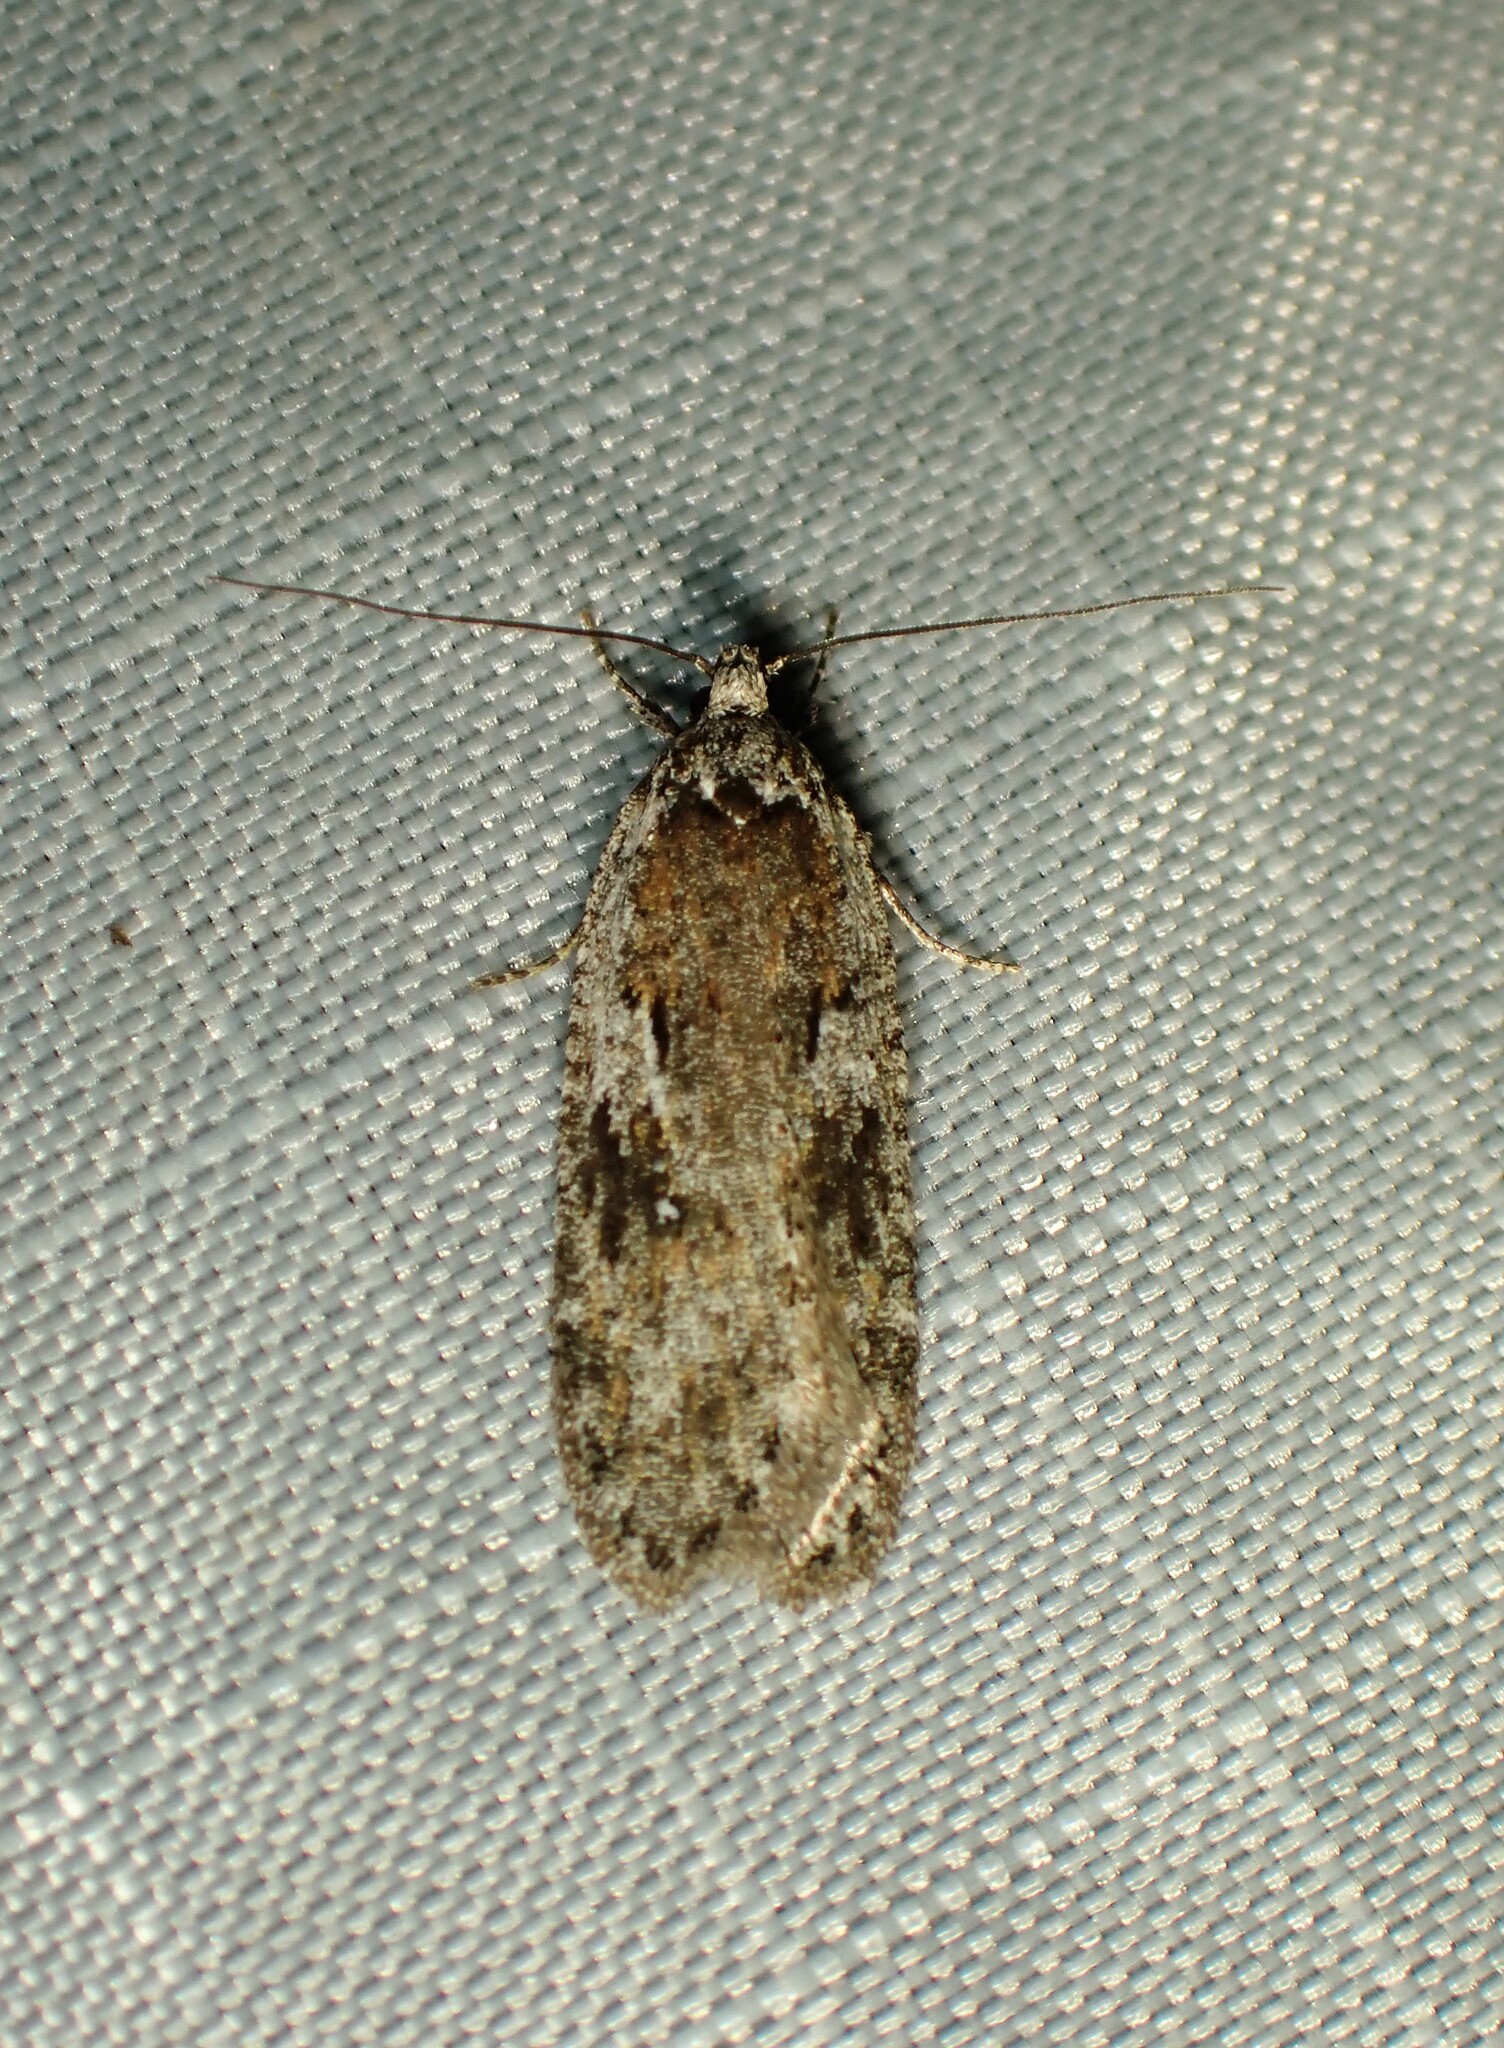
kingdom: Animalia
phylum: Arthropoda
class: Insecta
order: Lepidoptera
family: Depressariidae
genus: Exaeretia
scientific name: Exaeretia ciniflonella
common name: Scotch flat-body
